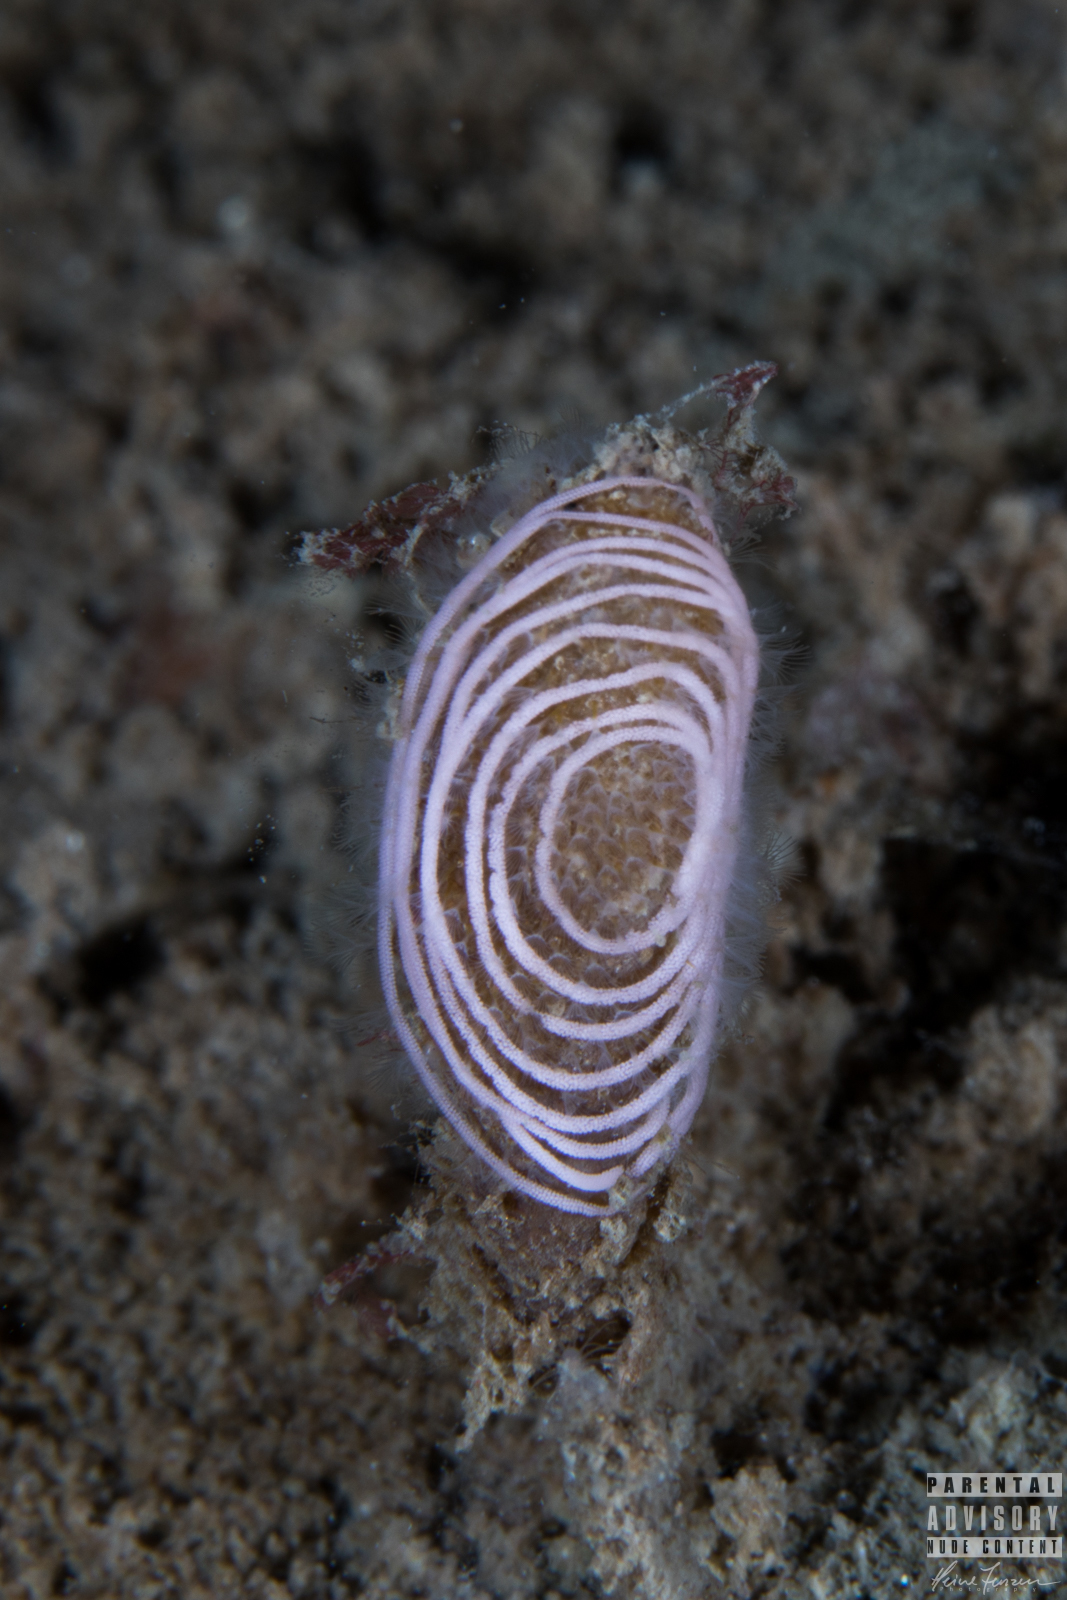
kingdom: Animalia
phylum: Mollusca
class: Gastropoda
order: Nudibranchia
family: Coryphellidae
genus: Coryphella
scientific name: Coryphella verrucosa
